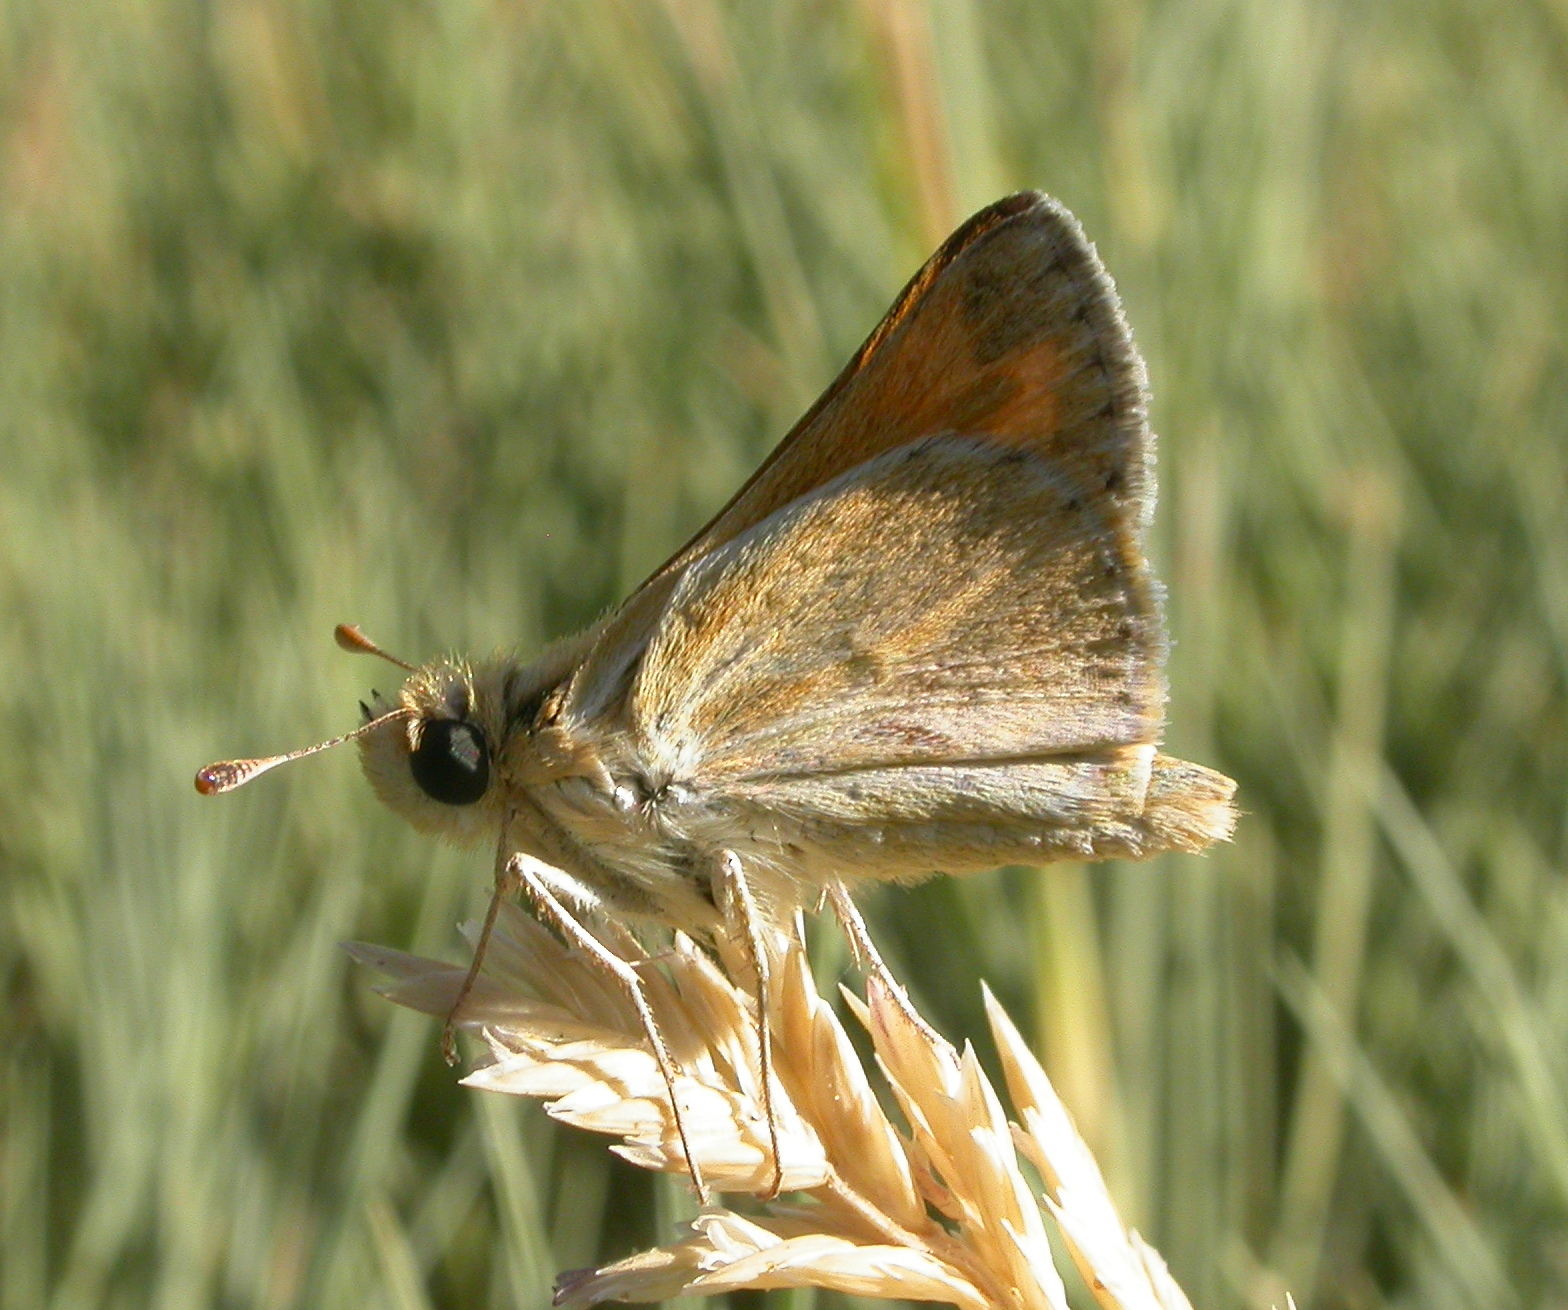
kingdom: Animalia
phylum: Arthropoda
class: Insecta
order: Lepidoptera
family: Hesperiidae
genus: Pseudocopaeodes
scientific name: Pseudocopaeodes eunus
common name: Alkali skipper
